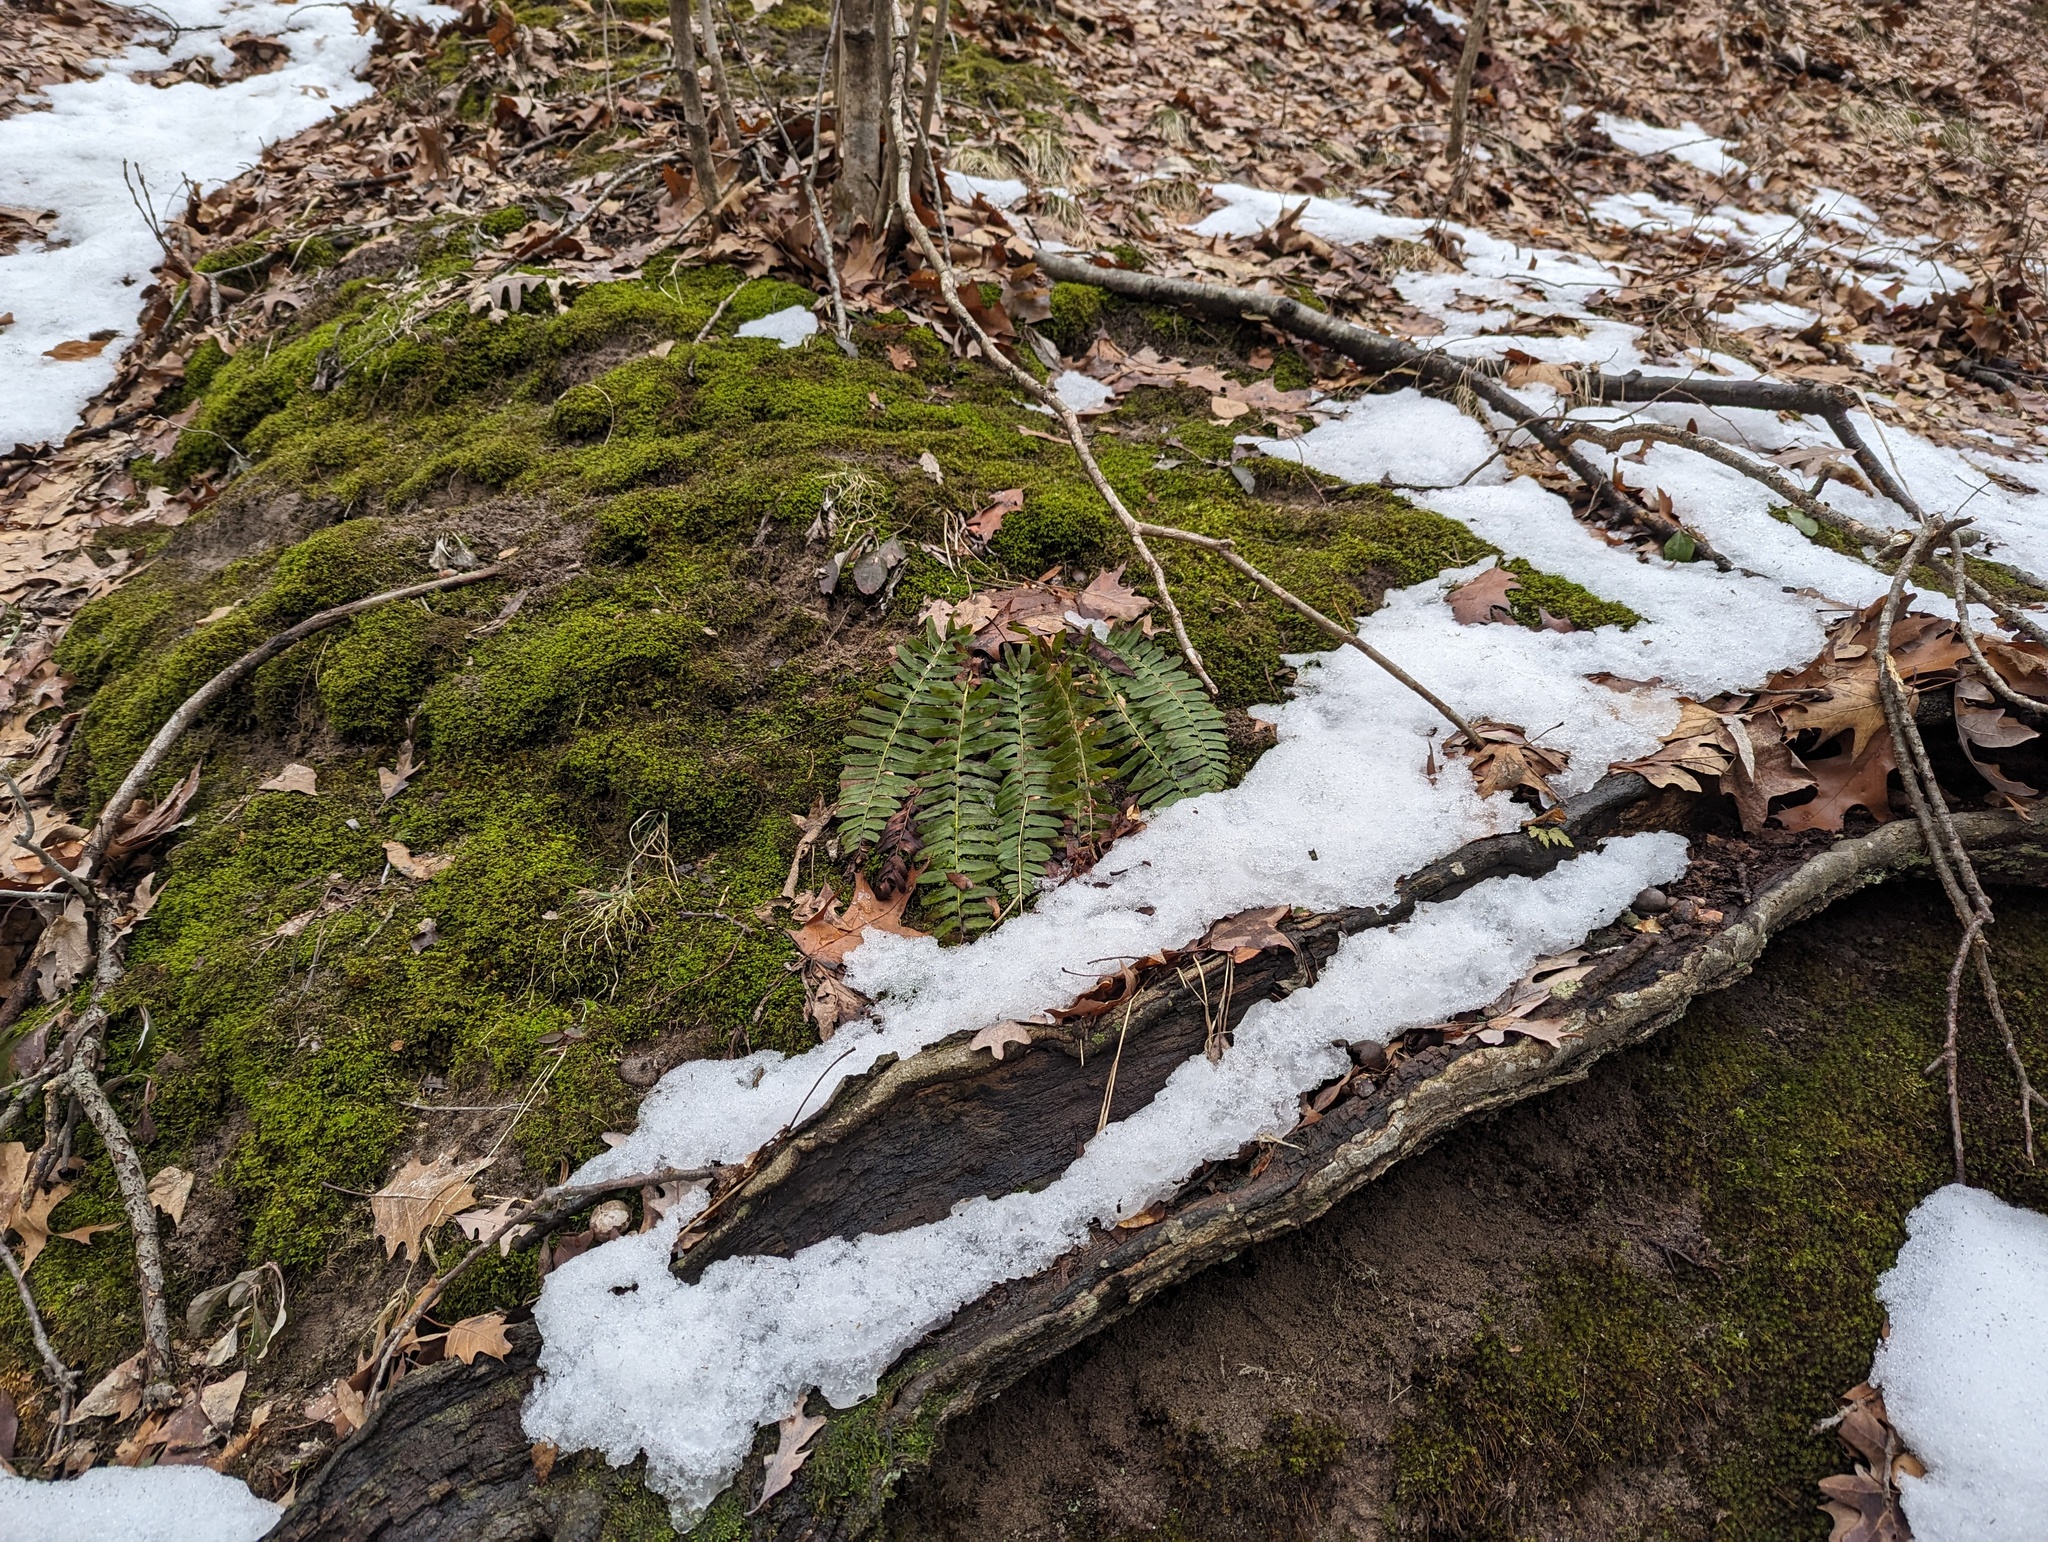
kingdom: Plantae
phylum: Tracheophyta
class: Polypodiopsida
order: Polypodiales
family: Dryopteridaceae
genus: Polystichum
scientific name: Polystichum acrostichoides
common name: Christmas fern
